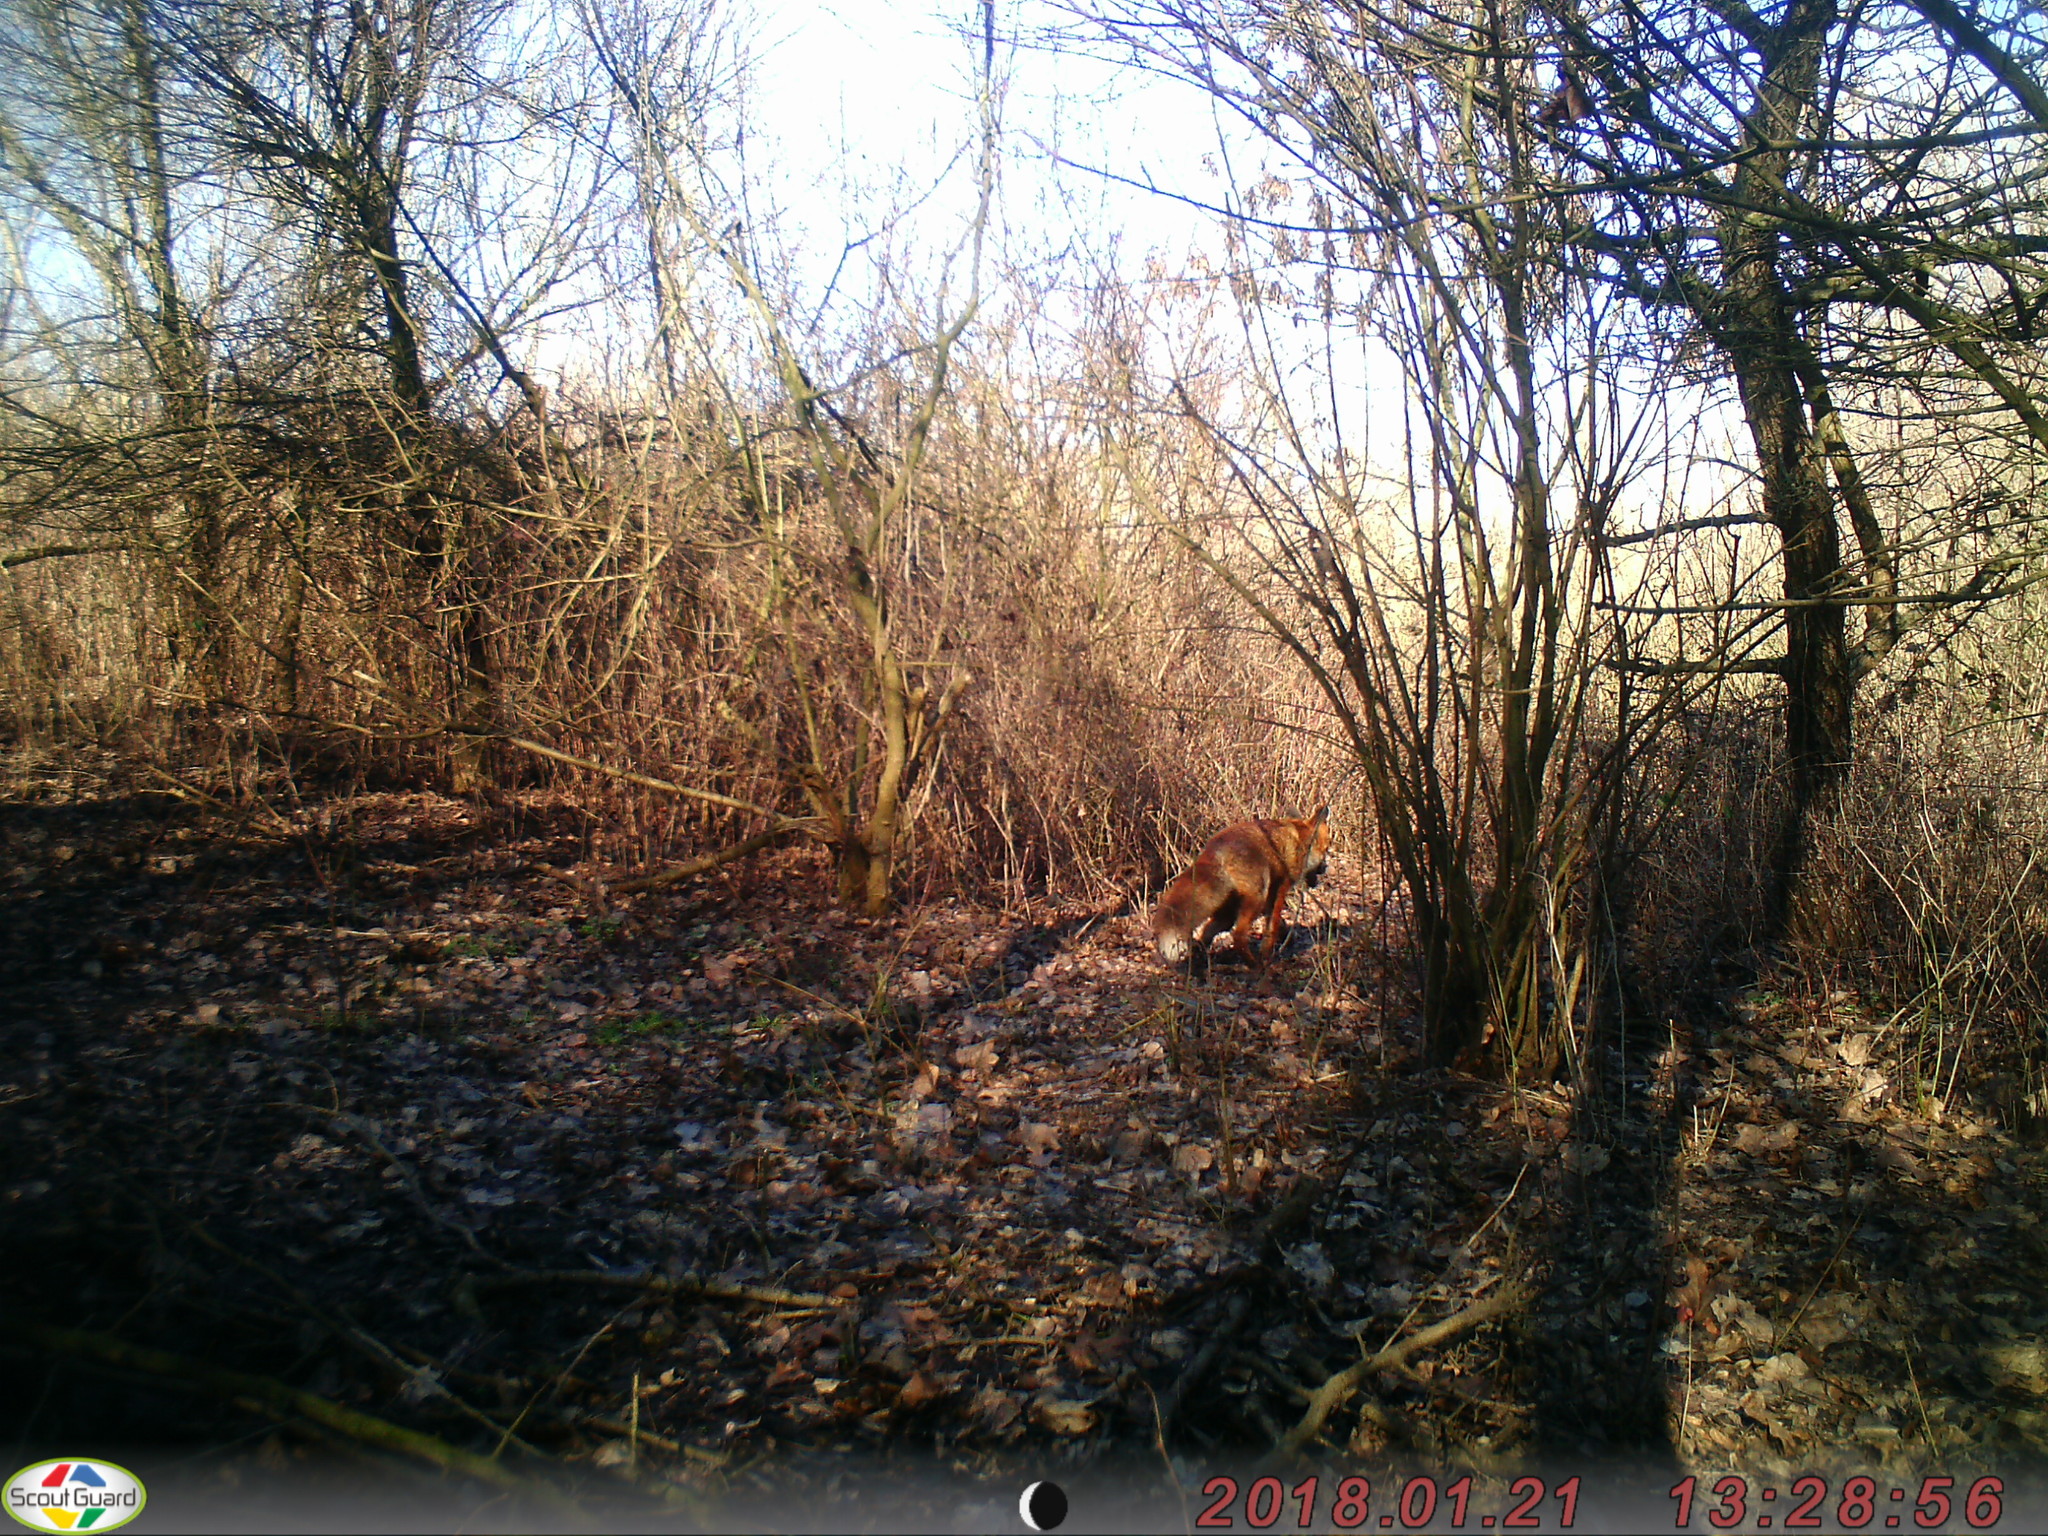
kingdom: Animalia
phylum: Chordata
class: Mammalia
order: Carnivora
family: Canidae
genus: Vulpes
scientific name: Vulpes vulpes
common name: Red fox
